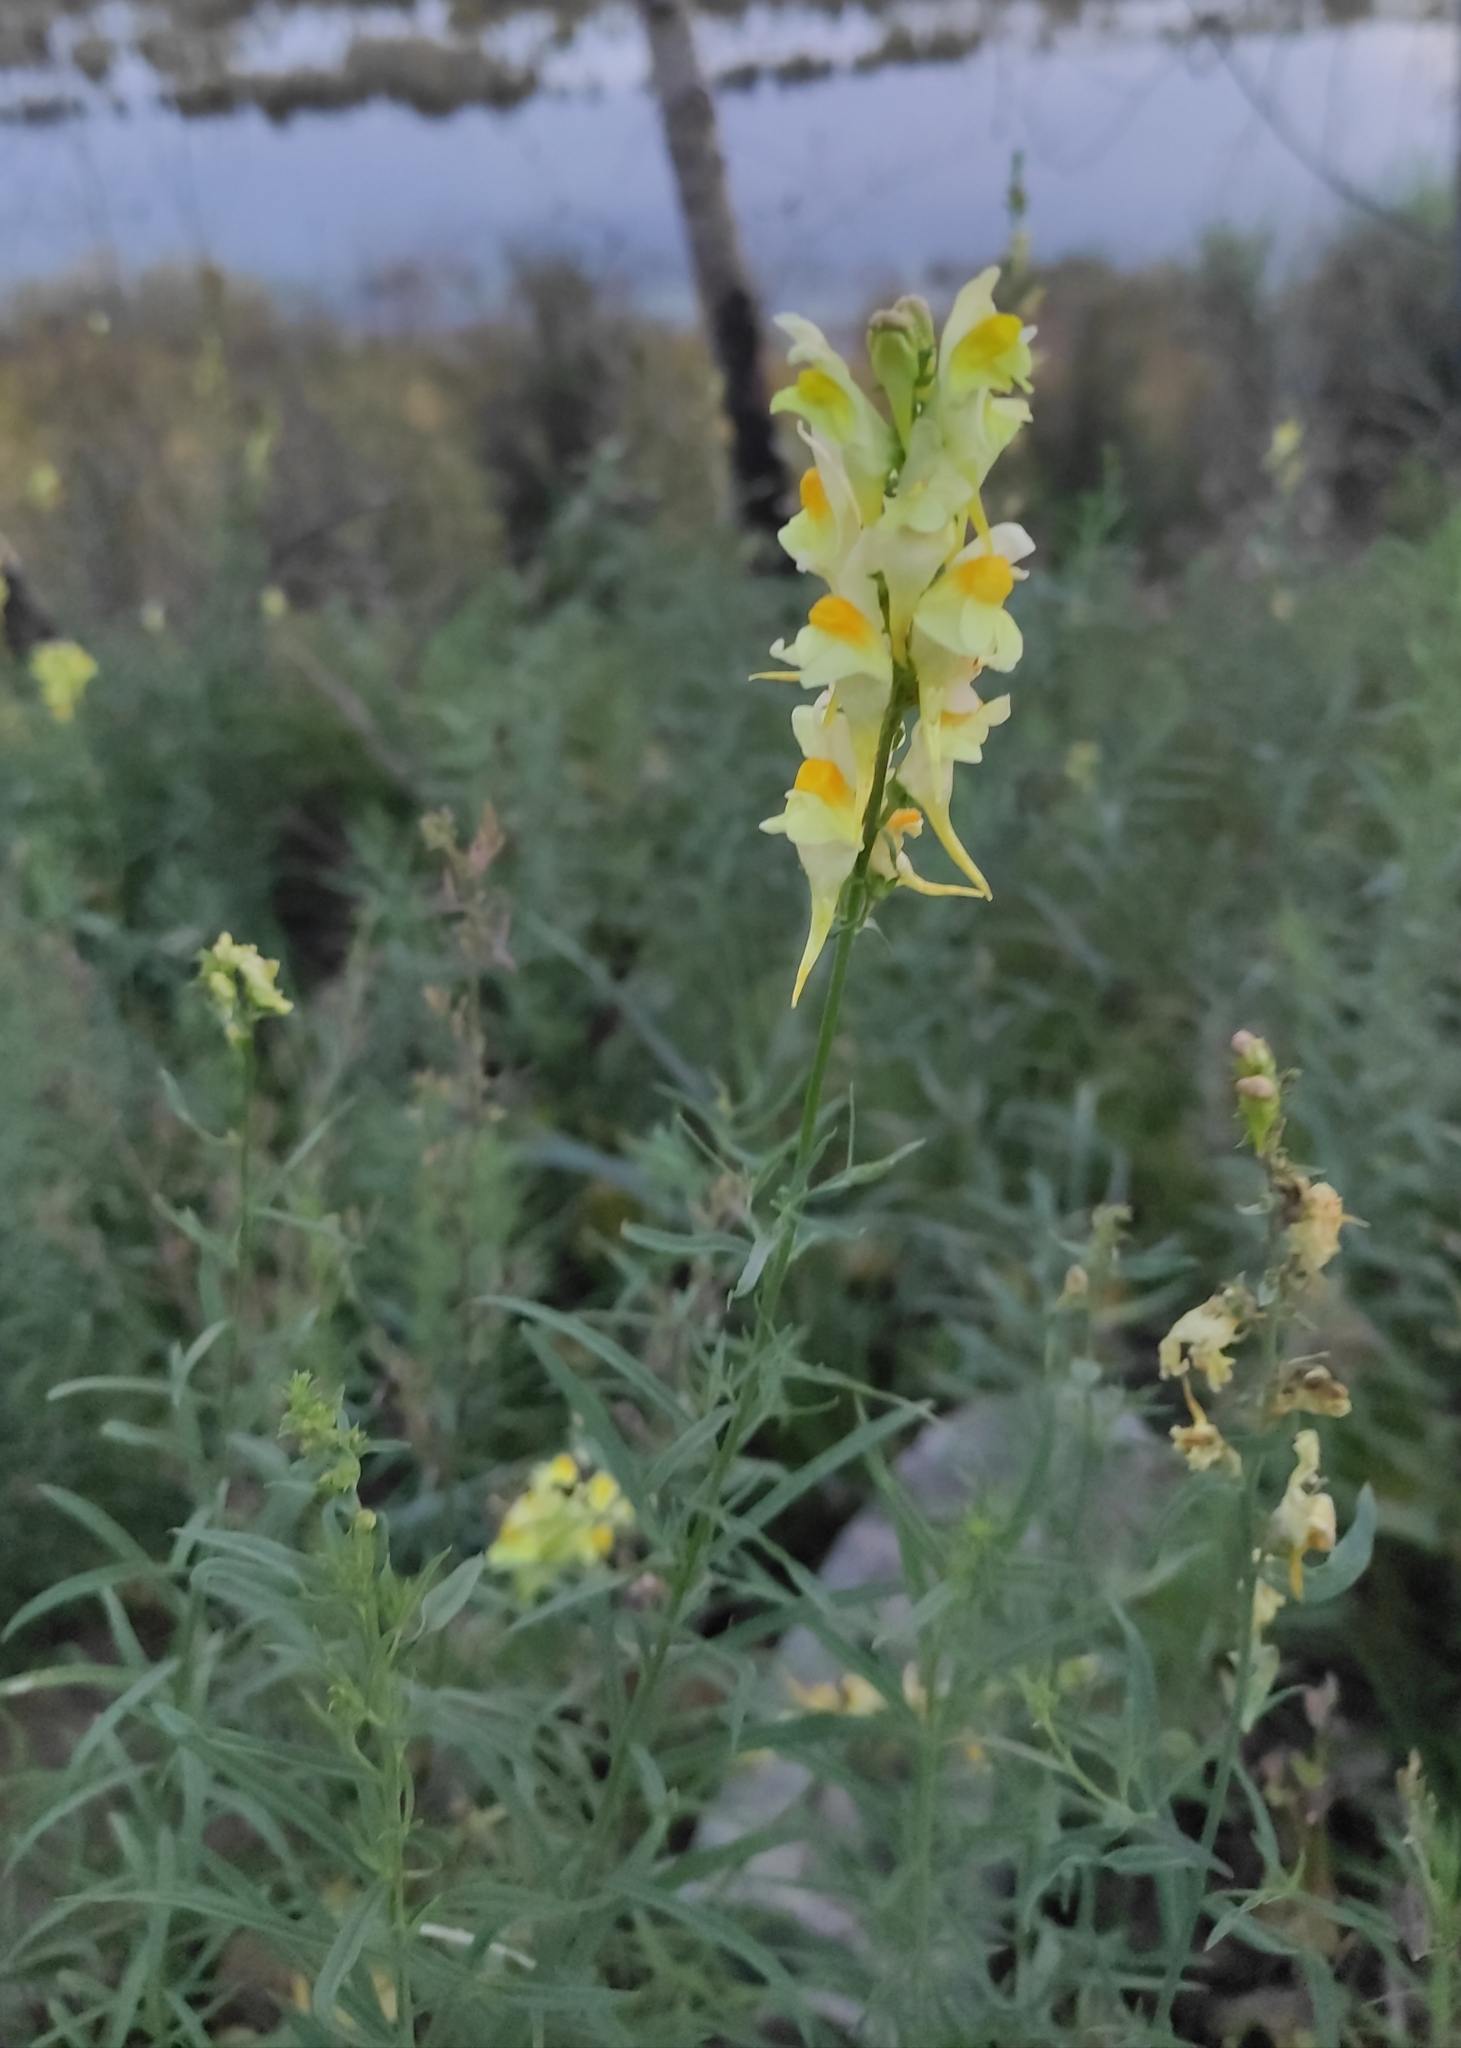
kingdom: Plantae
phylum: Tracheophyta
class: Magnoliopsida
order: Lamiales
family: Plantaginaceae
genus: Linaria
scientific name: Linaria vulgaris
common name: Butter and eggs
